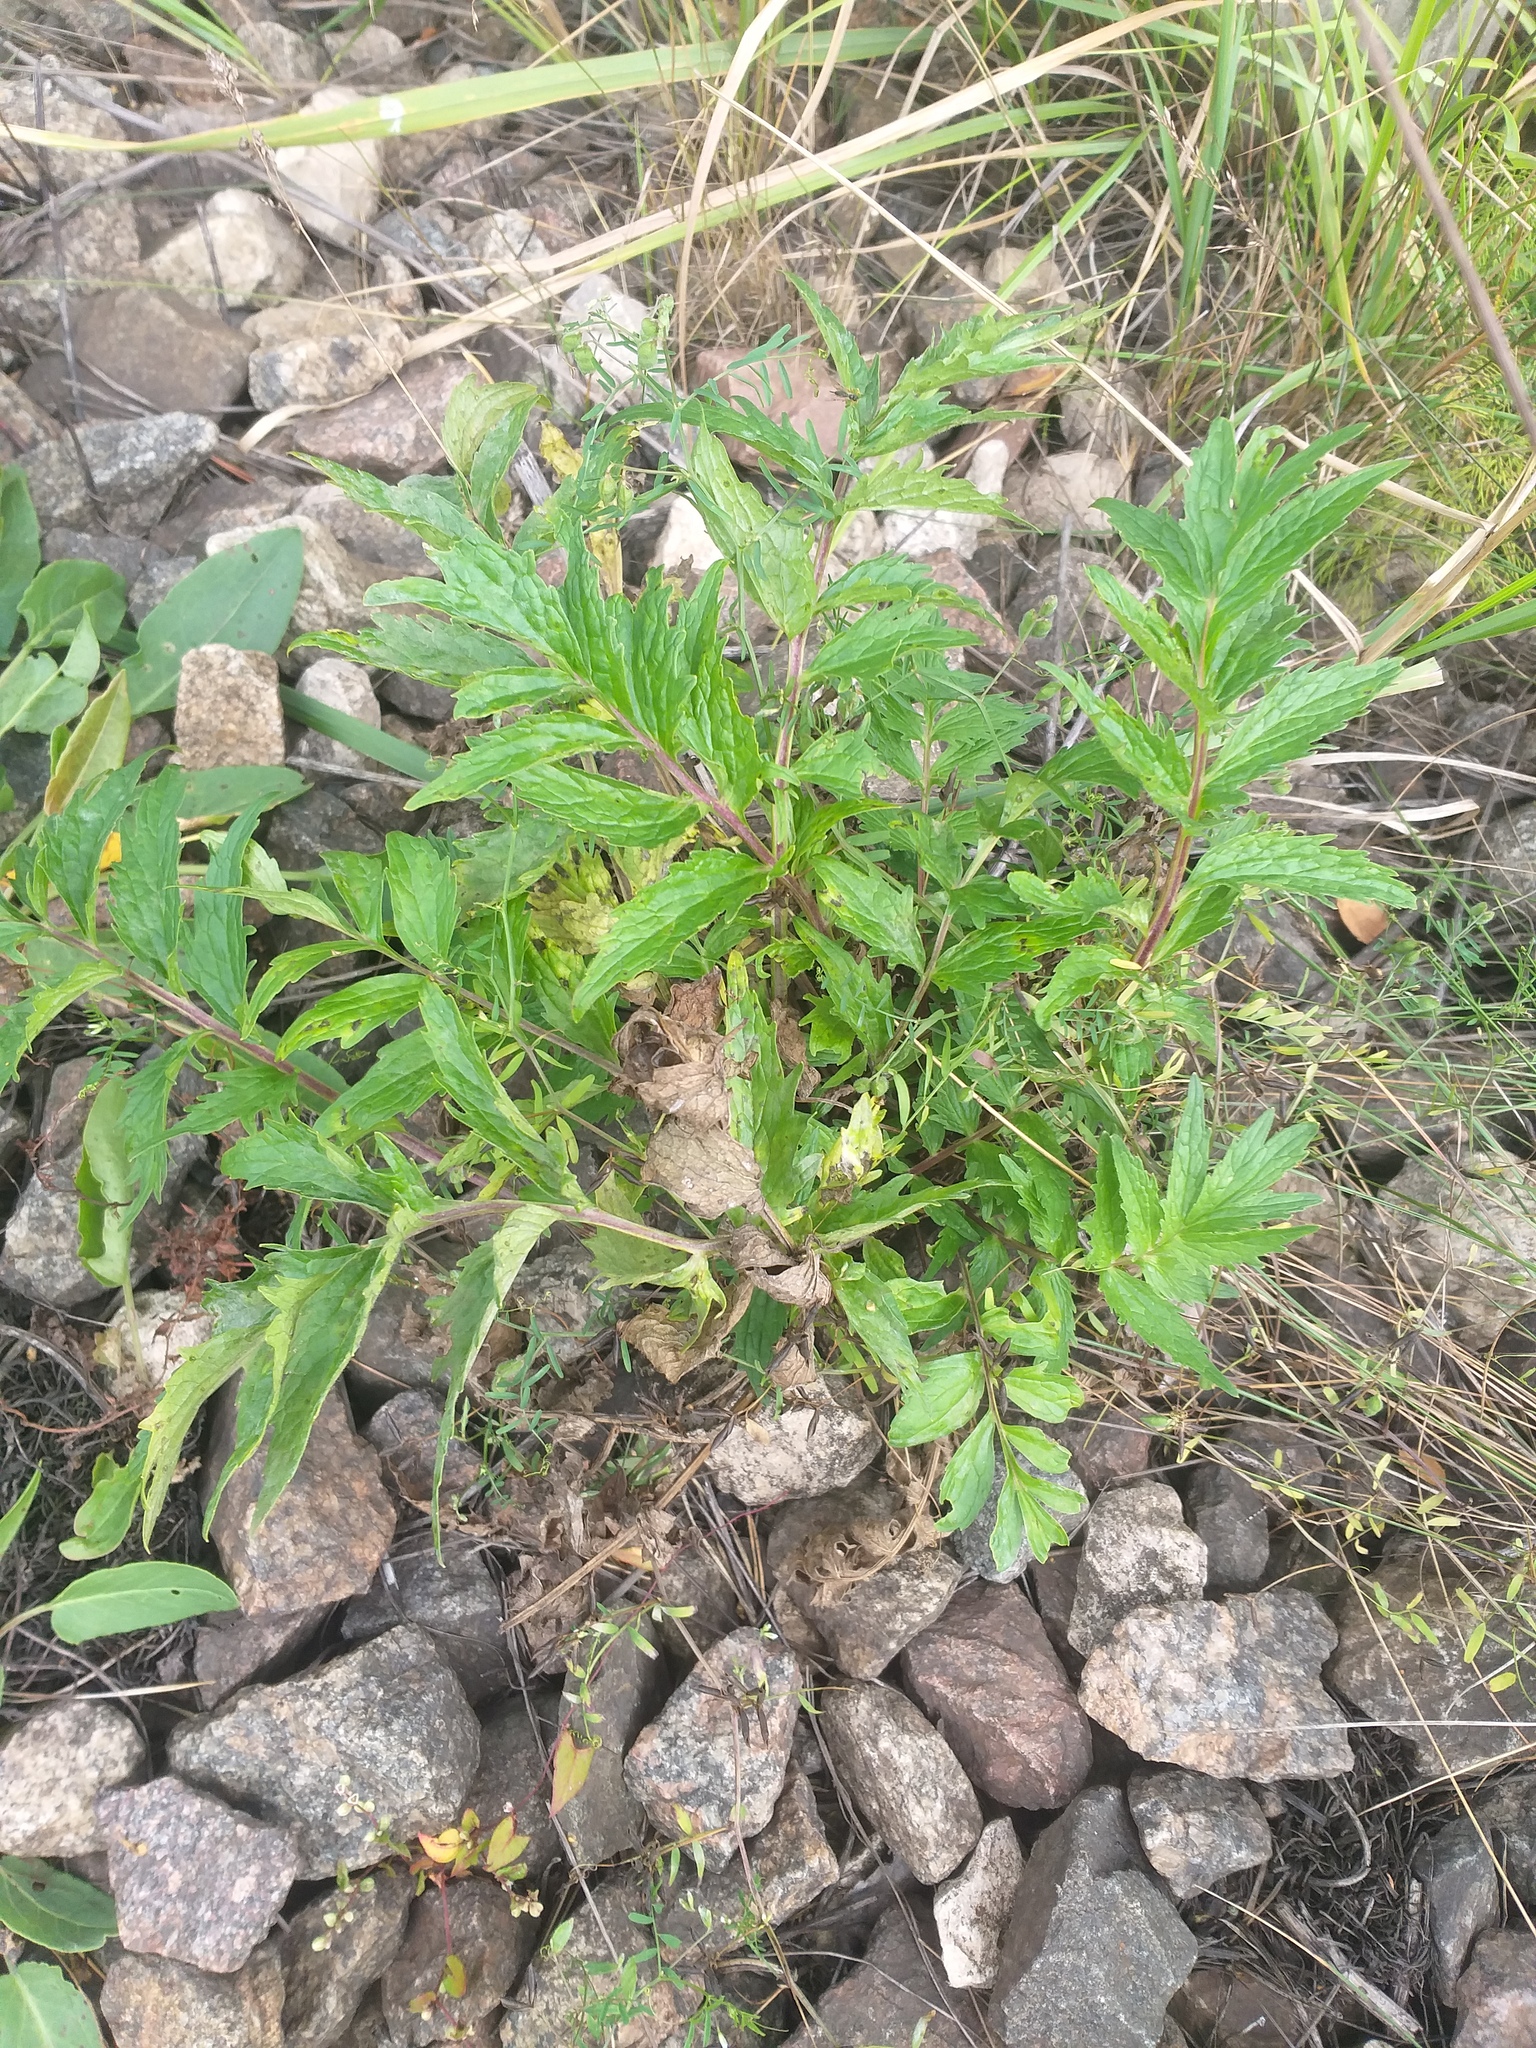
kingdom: Plantae
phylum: Tracheophyta
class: Magnoliopsida
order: Dipsacales
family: Caprifoliaceae
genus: Valeriana
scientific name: Valeriana officinalis
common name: Common valerian
